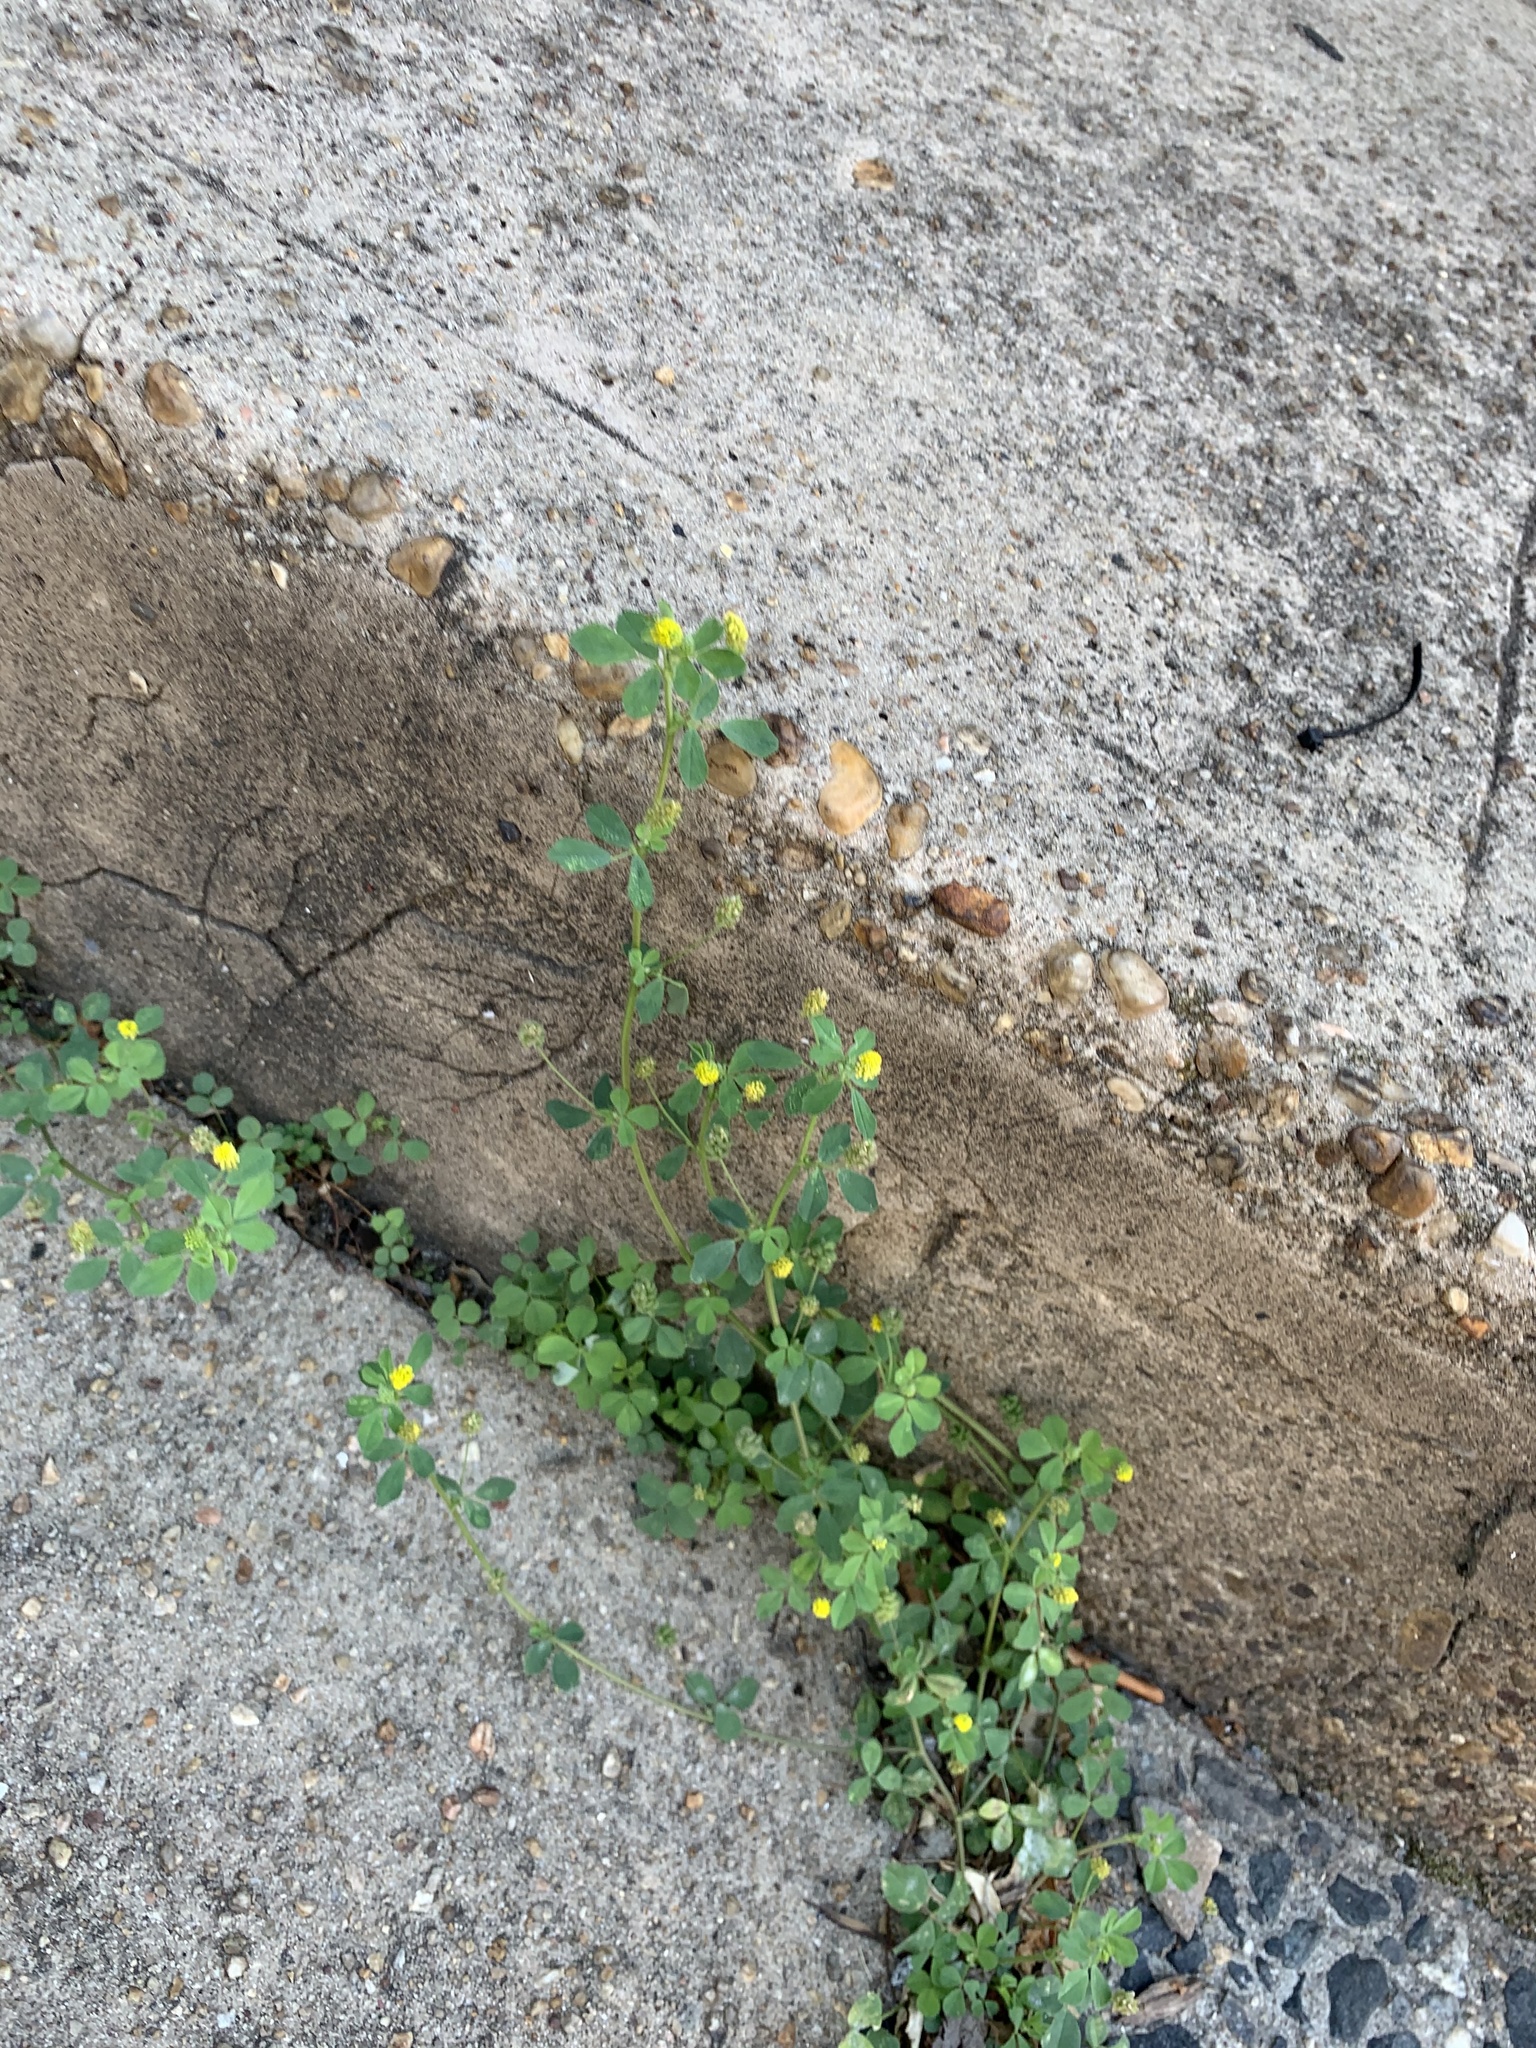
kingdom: Plantae
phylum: Tracheophyta
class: Magnoliopsida
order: Fabales
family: Fabaceae
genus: Medicago
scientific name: Medicago lupulina
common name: Black medick
